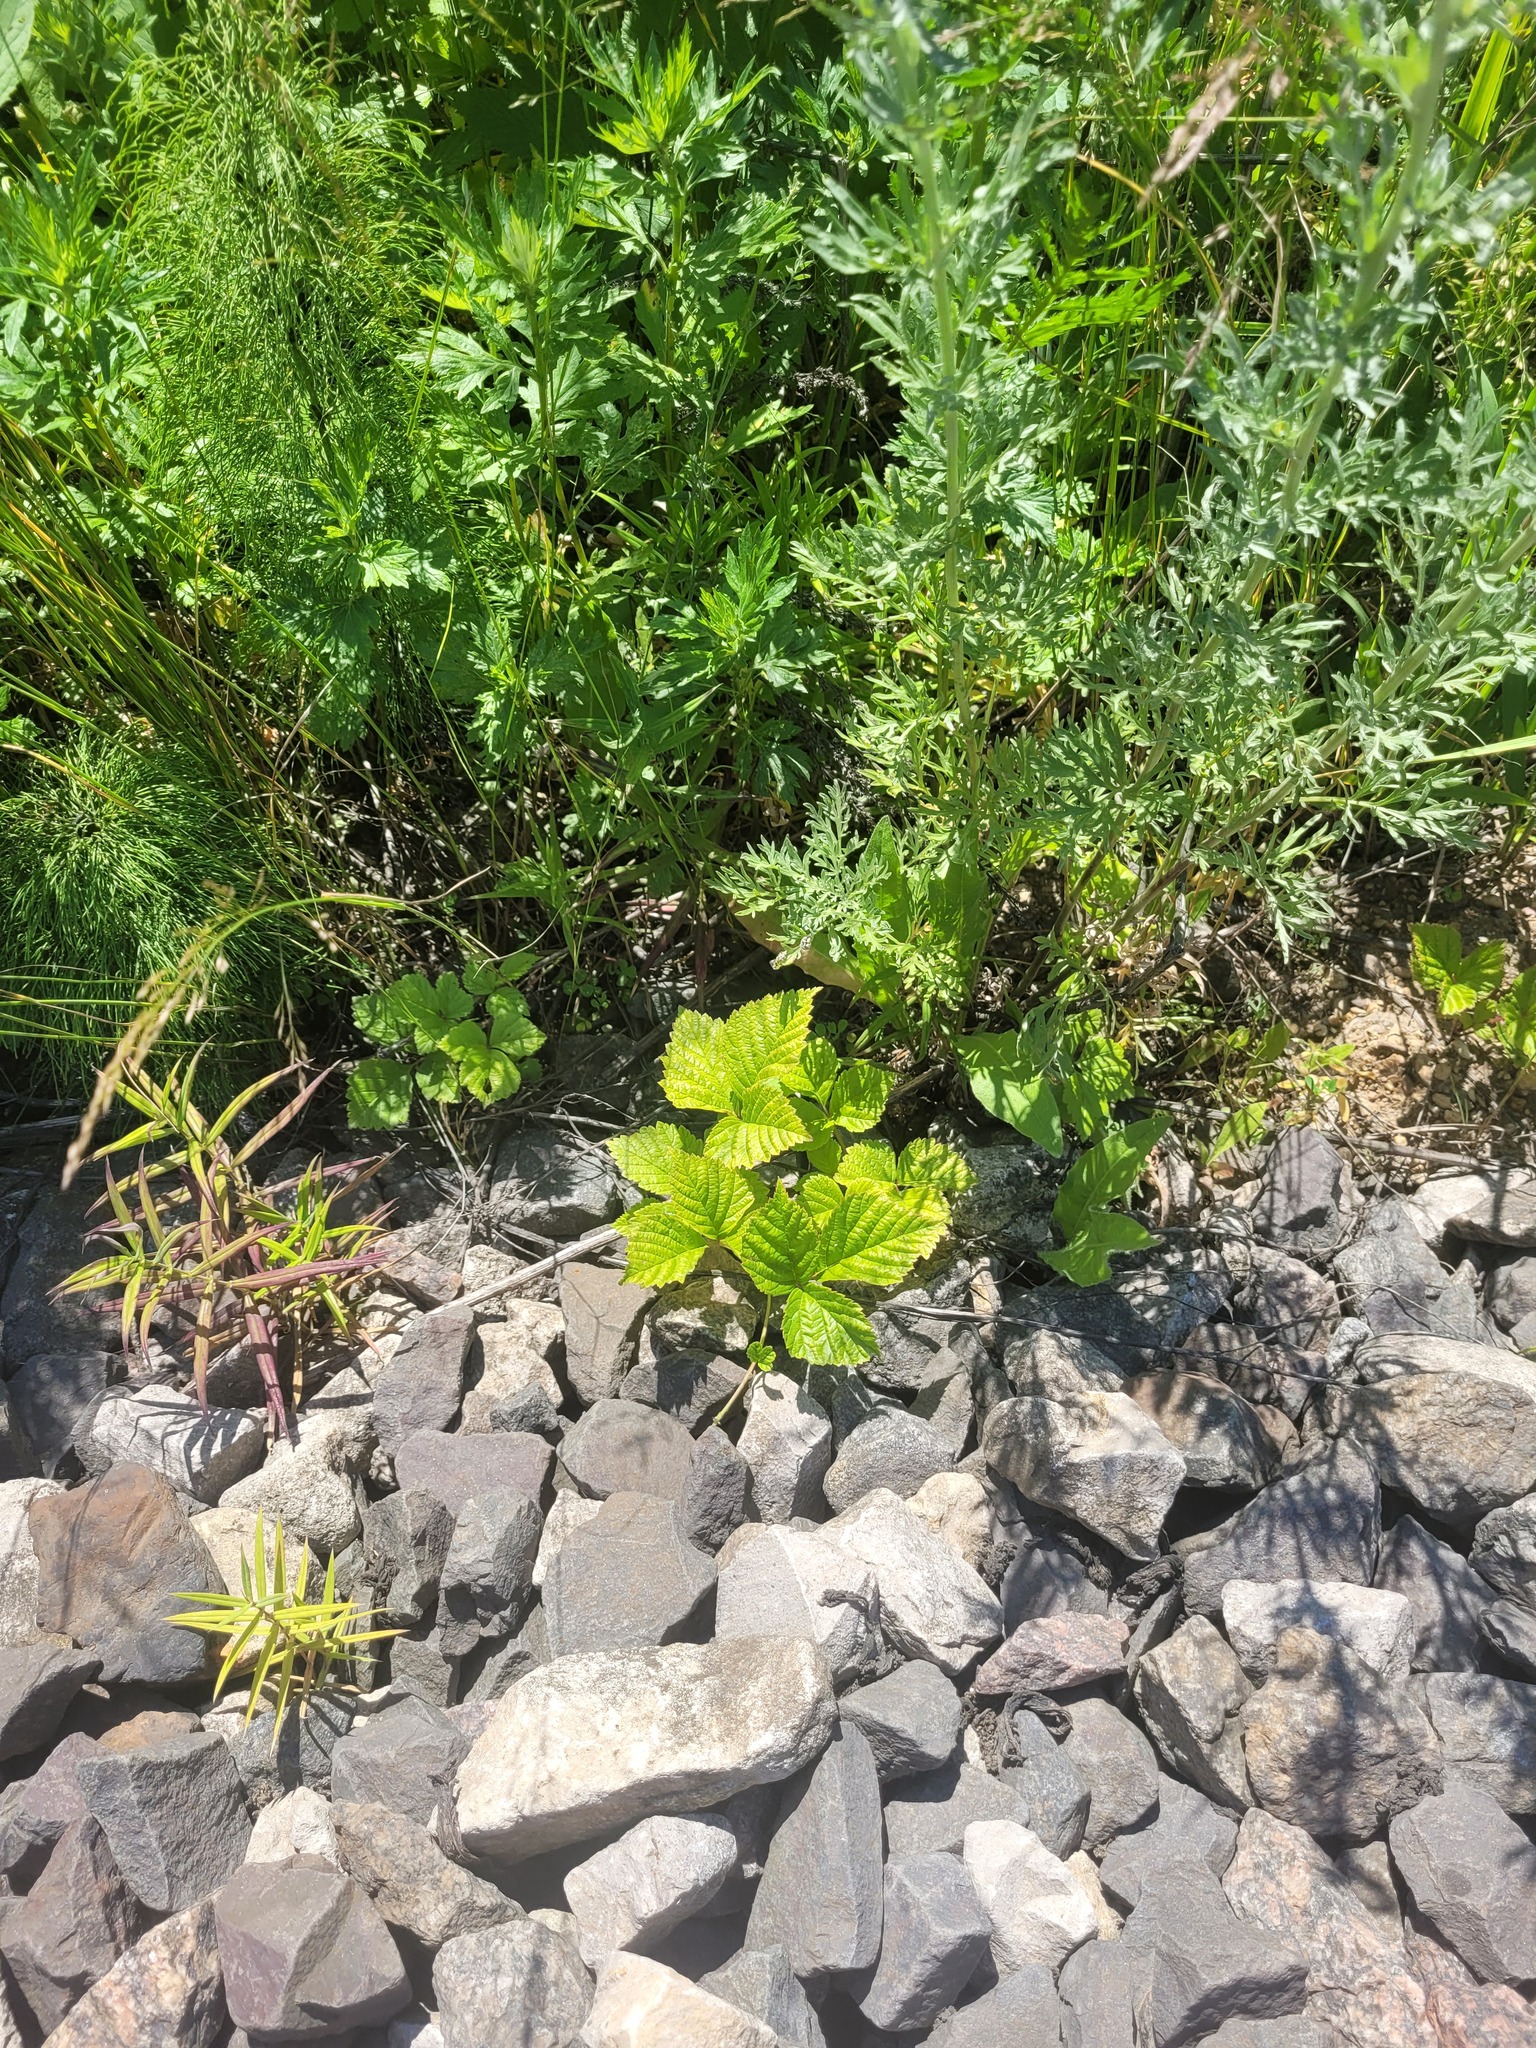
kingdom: Plantae
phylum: Tracheophyta
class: Magnoliopsida
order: Rosales
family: Rosaceae
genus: Rubus
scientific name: Rubus saxatilis
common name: Stone bramble
